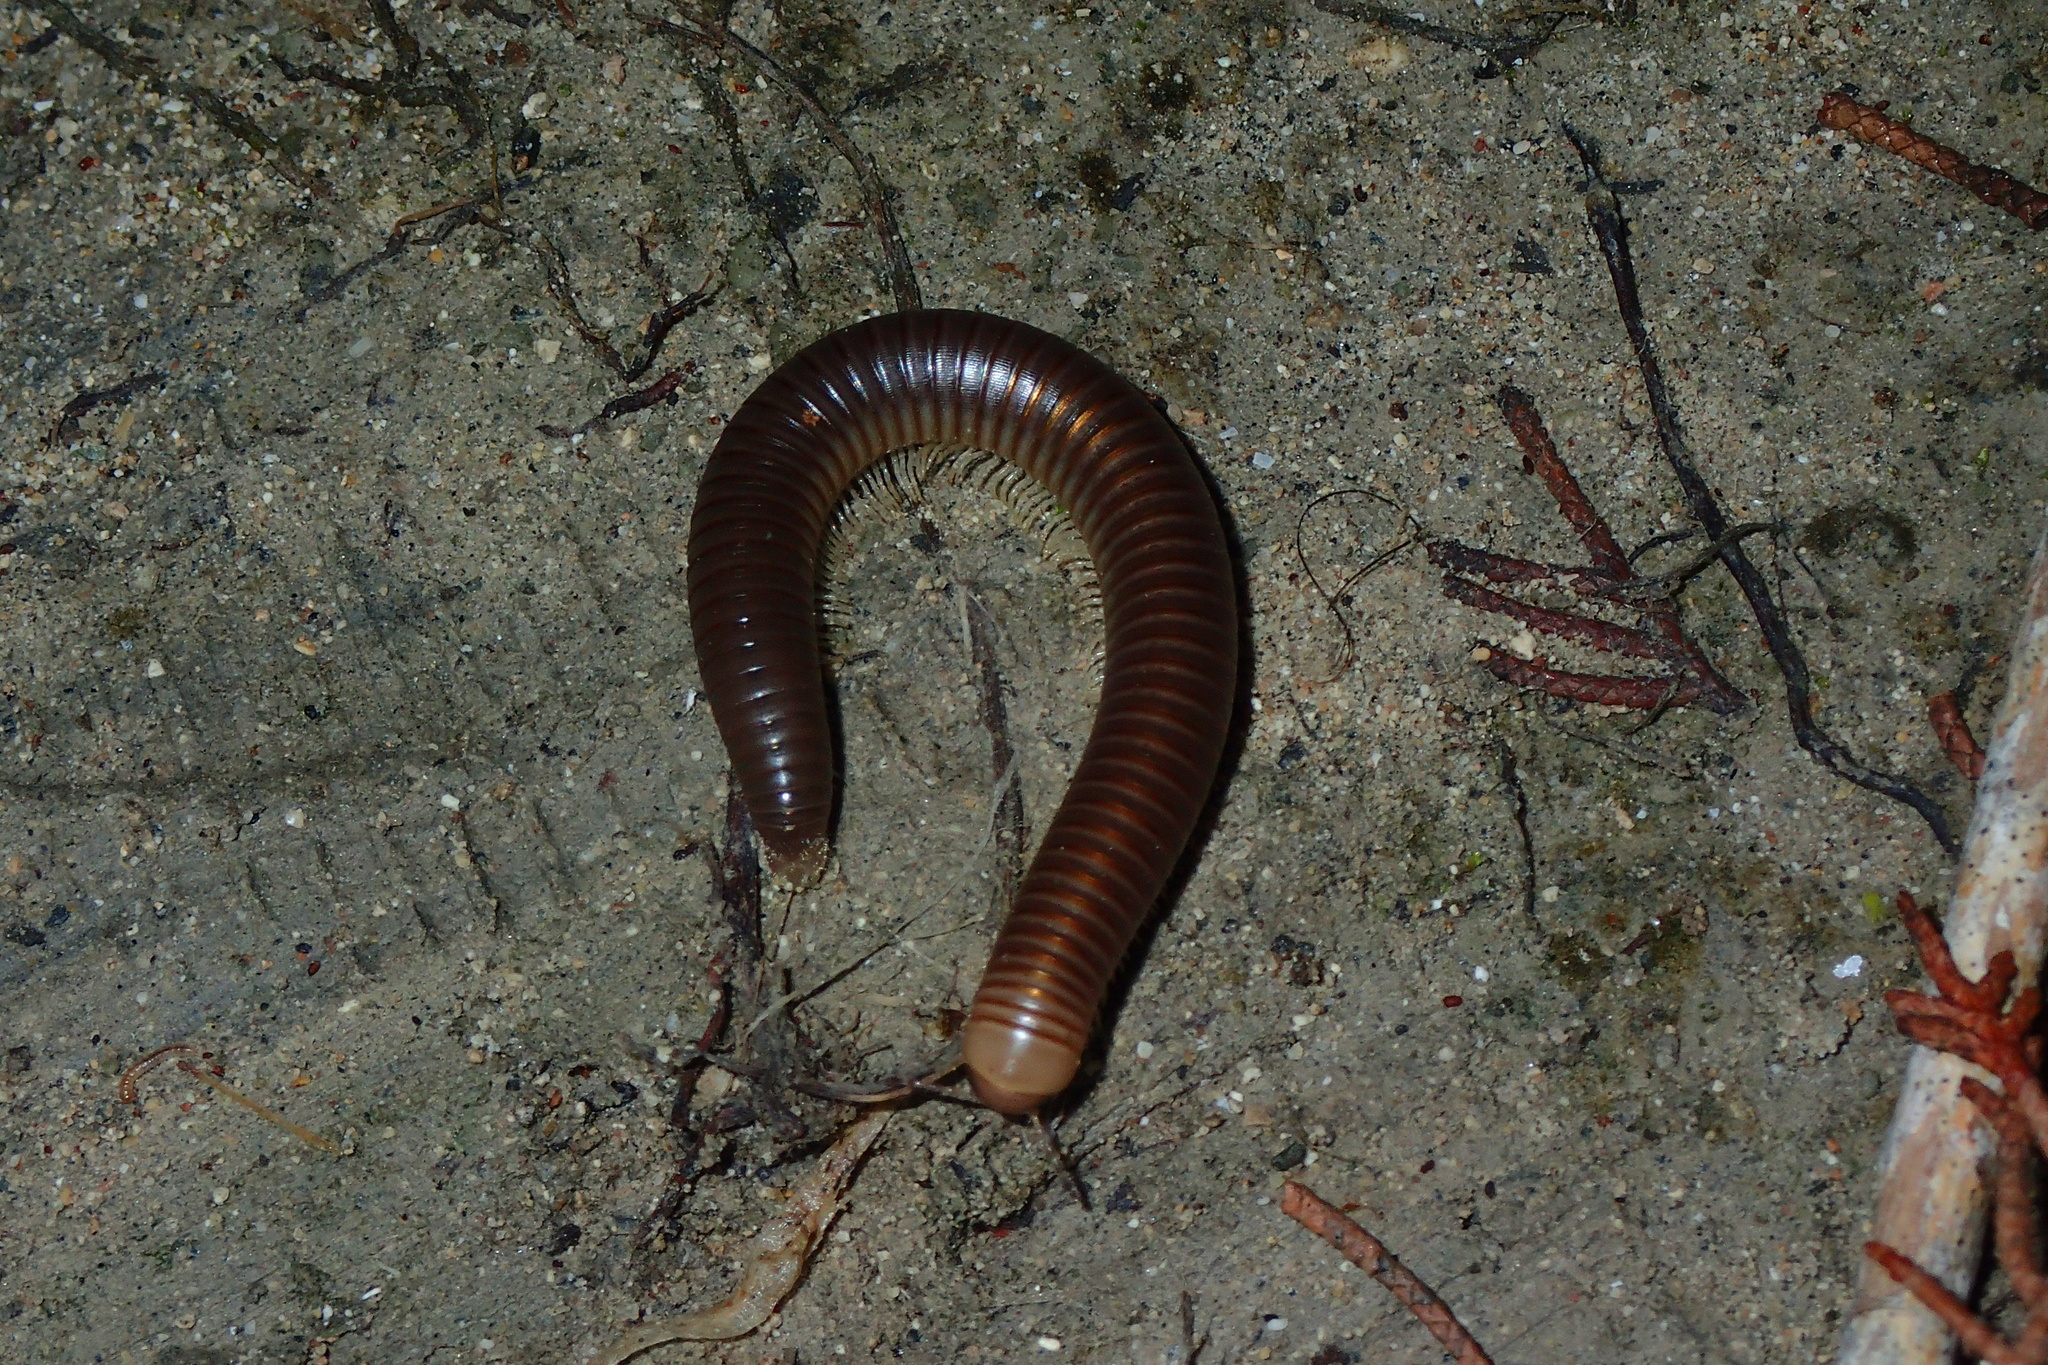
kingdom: Animalia
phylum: Arthropoda
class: Diplopoda
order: Julida
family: Julidae
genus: Pachyiulus
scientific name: Pachyiulus flavipes
